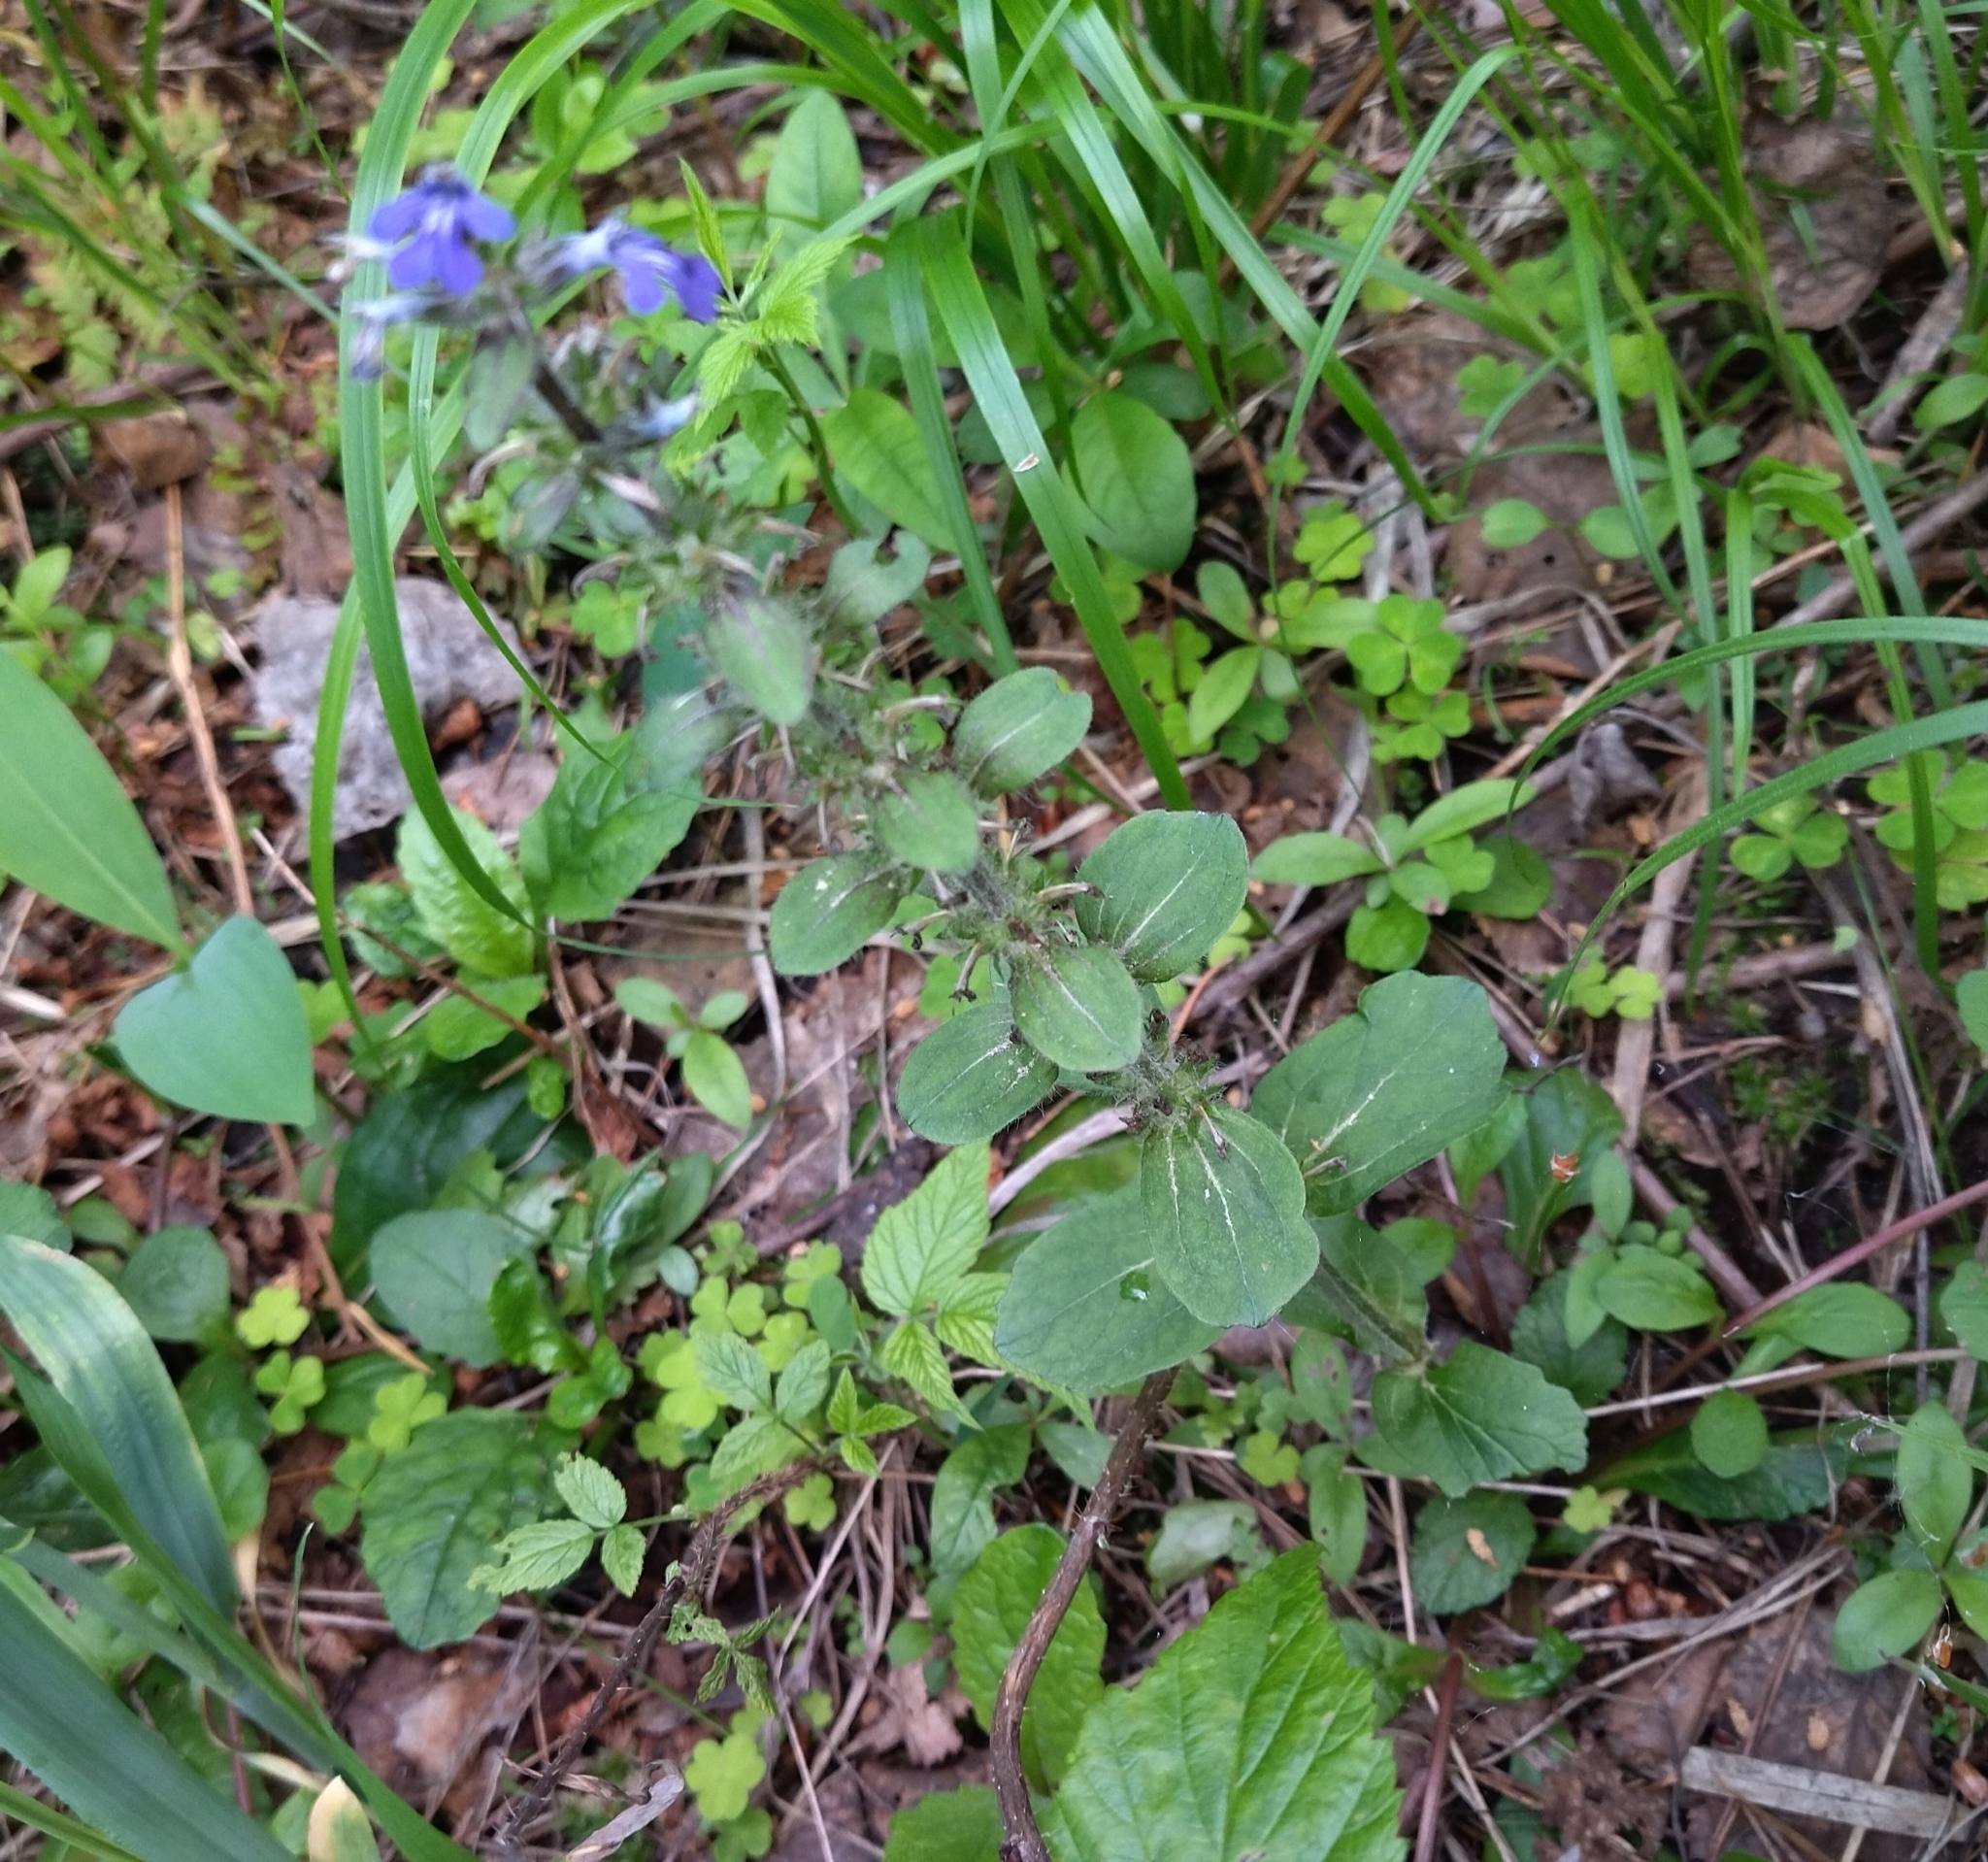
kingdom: Plantae
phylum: Tracheophyta
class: Magnoliopsida
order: Lamiales
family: Lamiaceae
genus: Ajuga
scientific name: Ajuga reptans
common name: Bugle
